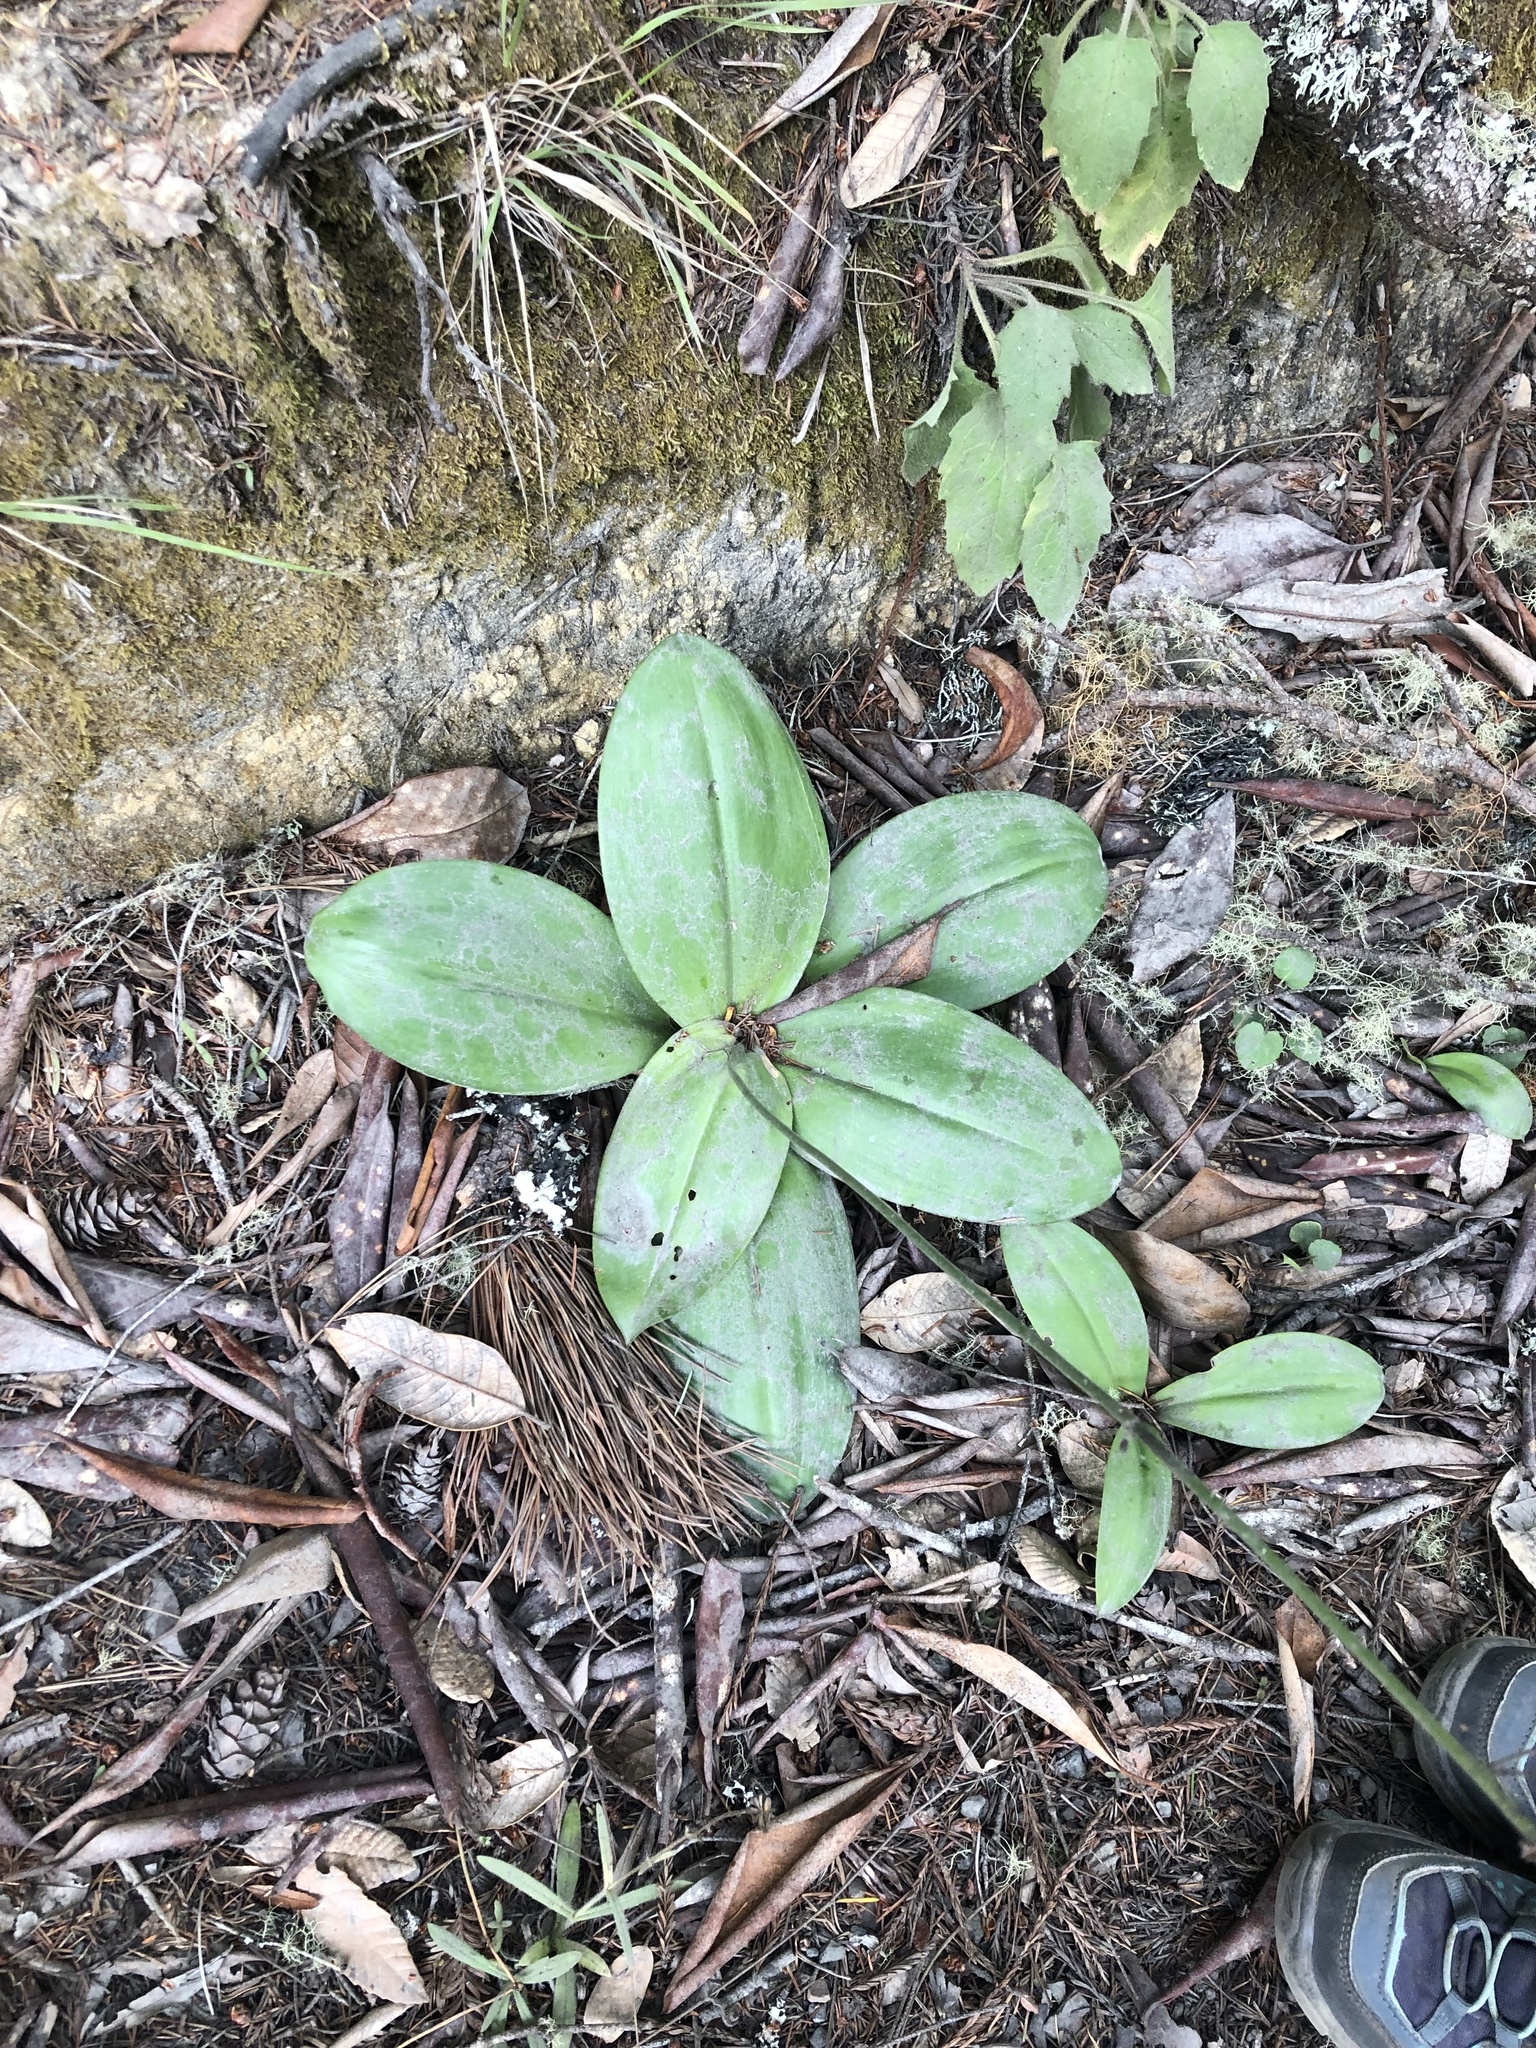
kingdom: Plantae
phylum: Tracheophyta
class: Liliopsida
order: Liliales
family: Liliaceae
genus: Clintonia
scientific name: Clintonia andrewsiana
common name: Red clintonia
